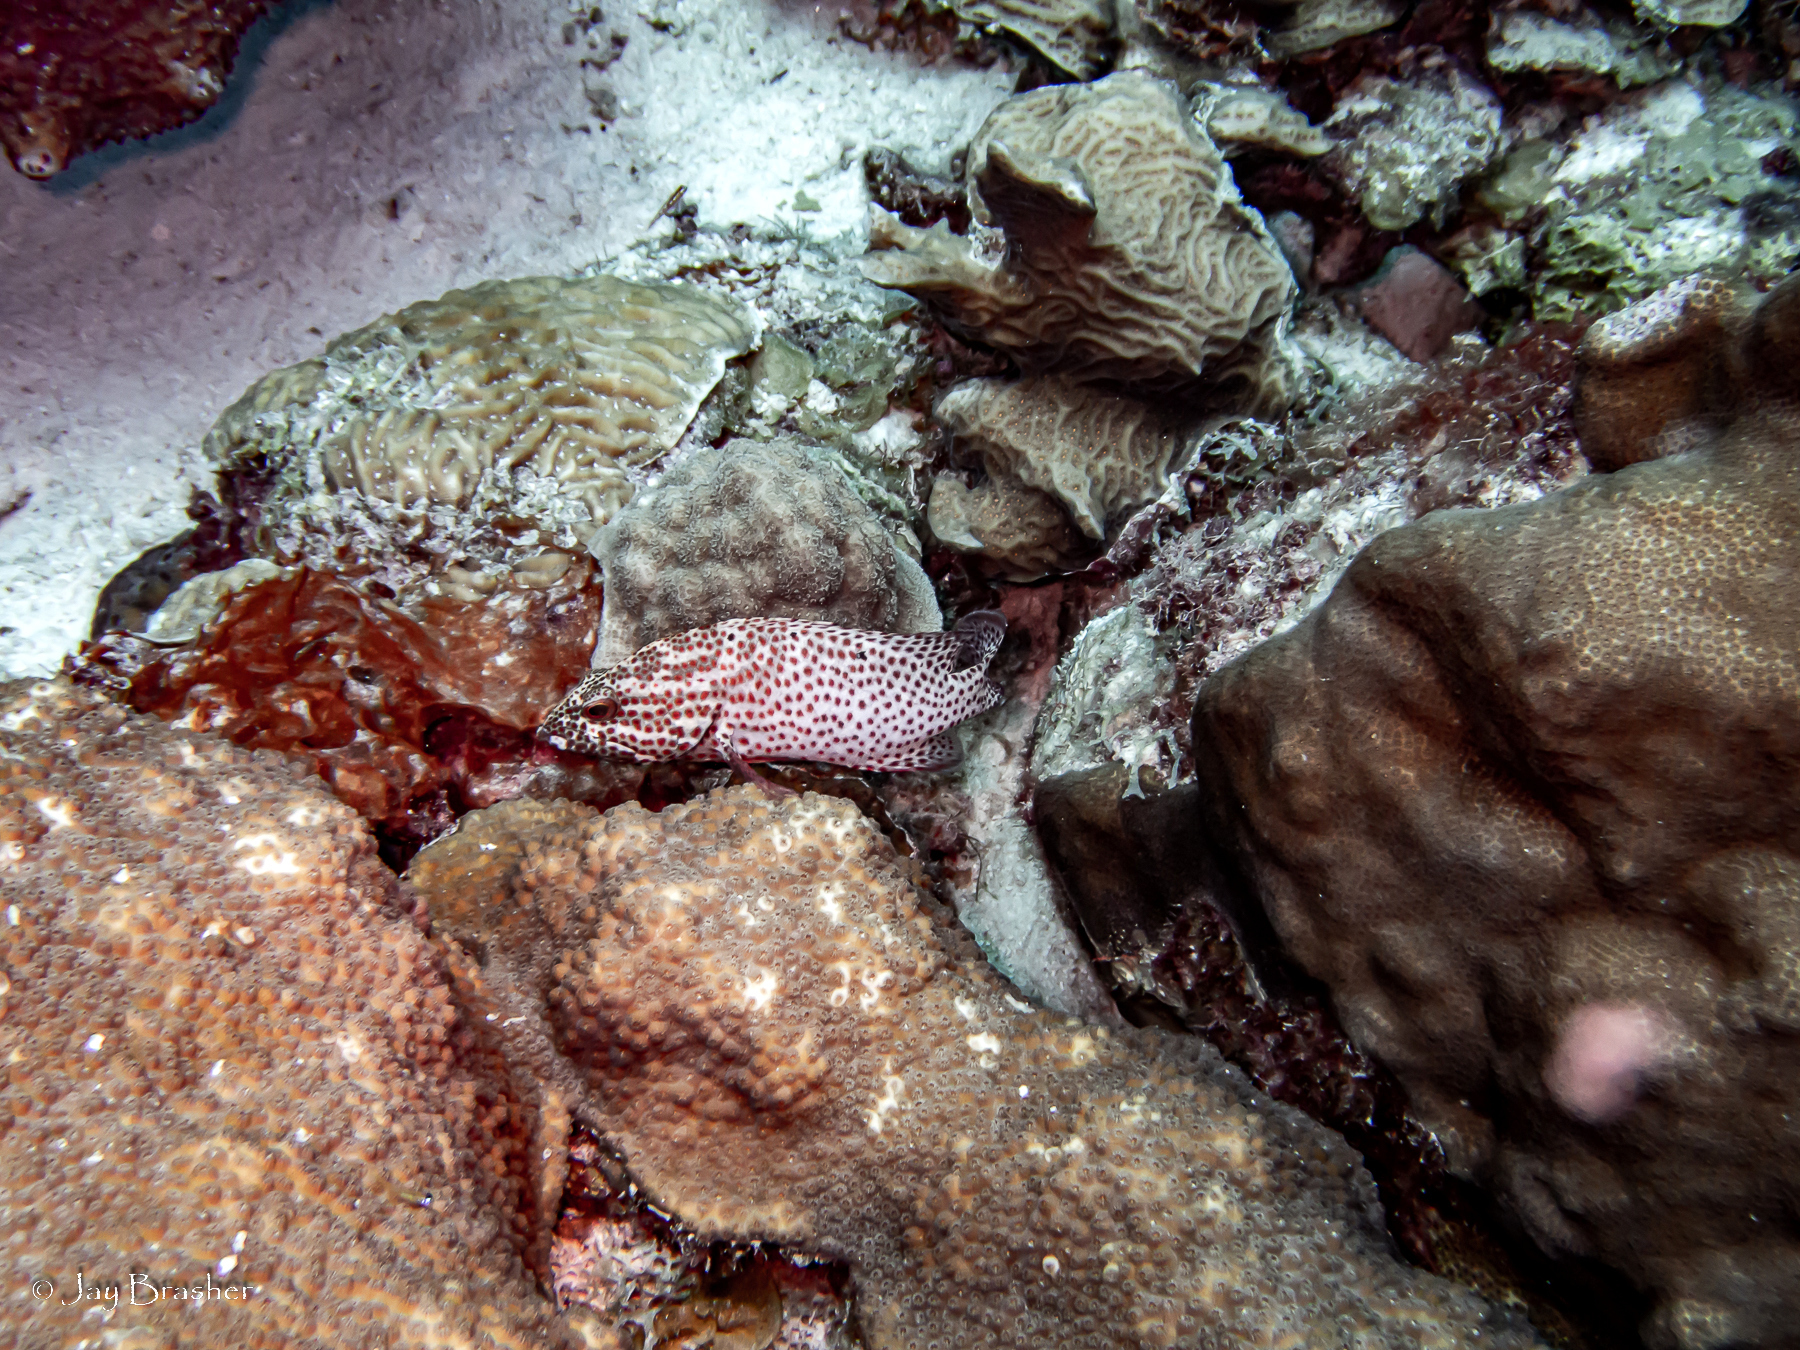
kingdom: Animalia
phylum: Chordata
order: Perciformes
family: Serranidae
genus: Cephalopholis
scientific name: Cephalopholis cruentata
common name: Graysby
